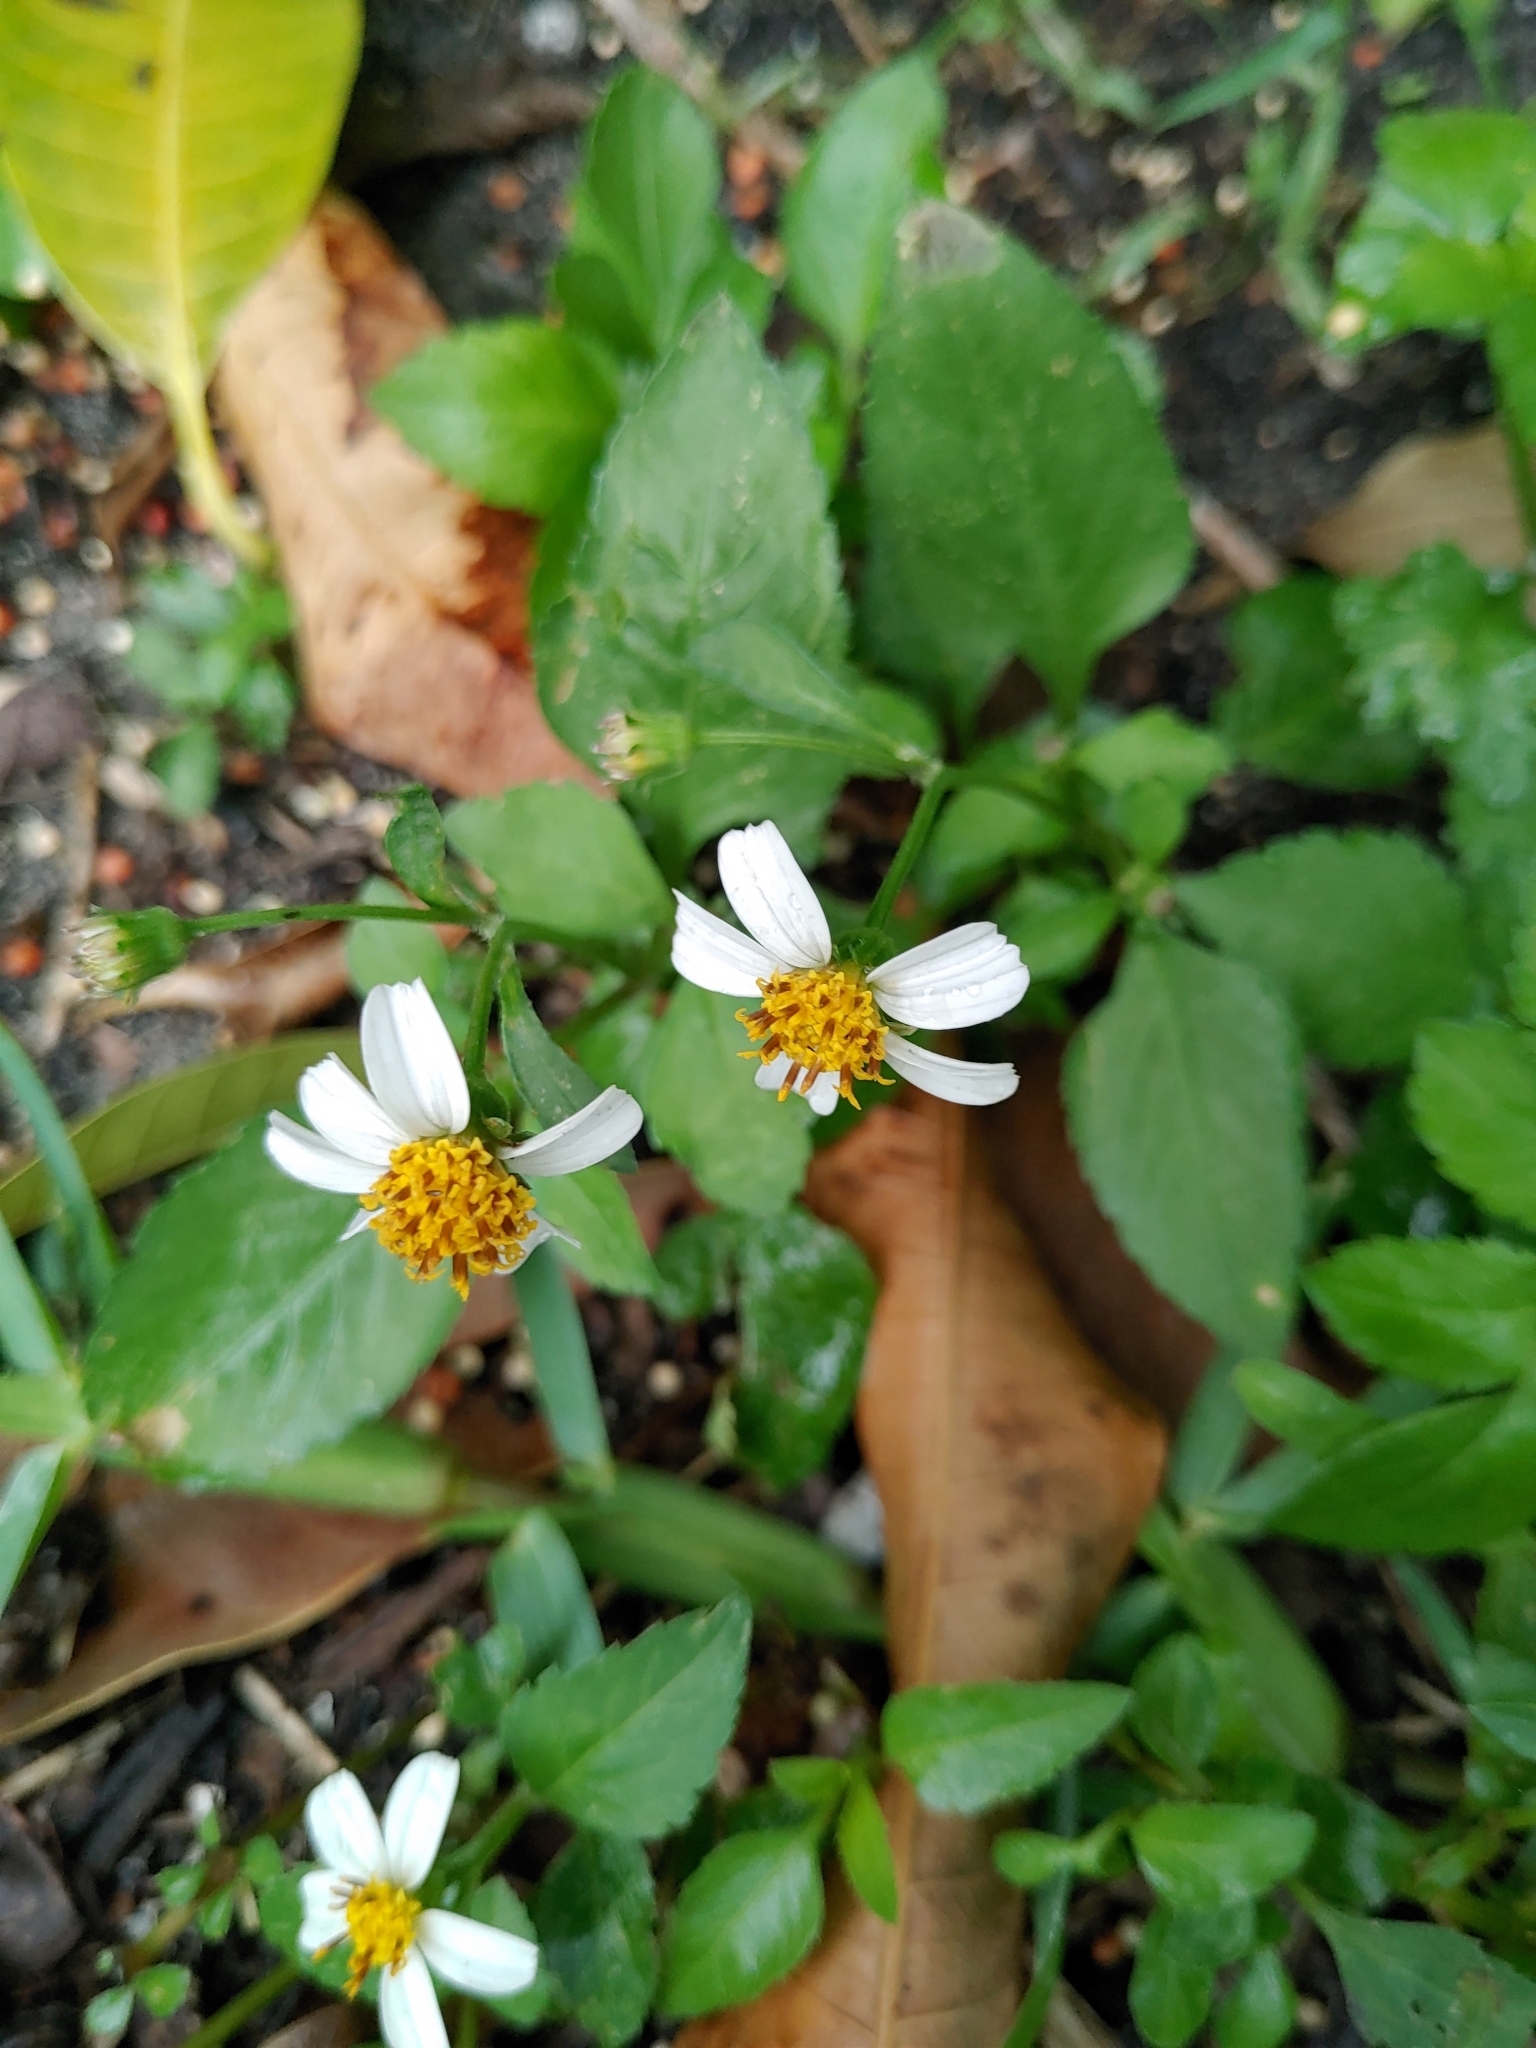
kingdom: Plantae
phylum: Tracheophyta
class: Magnoliopsida
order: Asterales
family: Asteraceae
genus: Bidens
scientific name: Bidens alba
